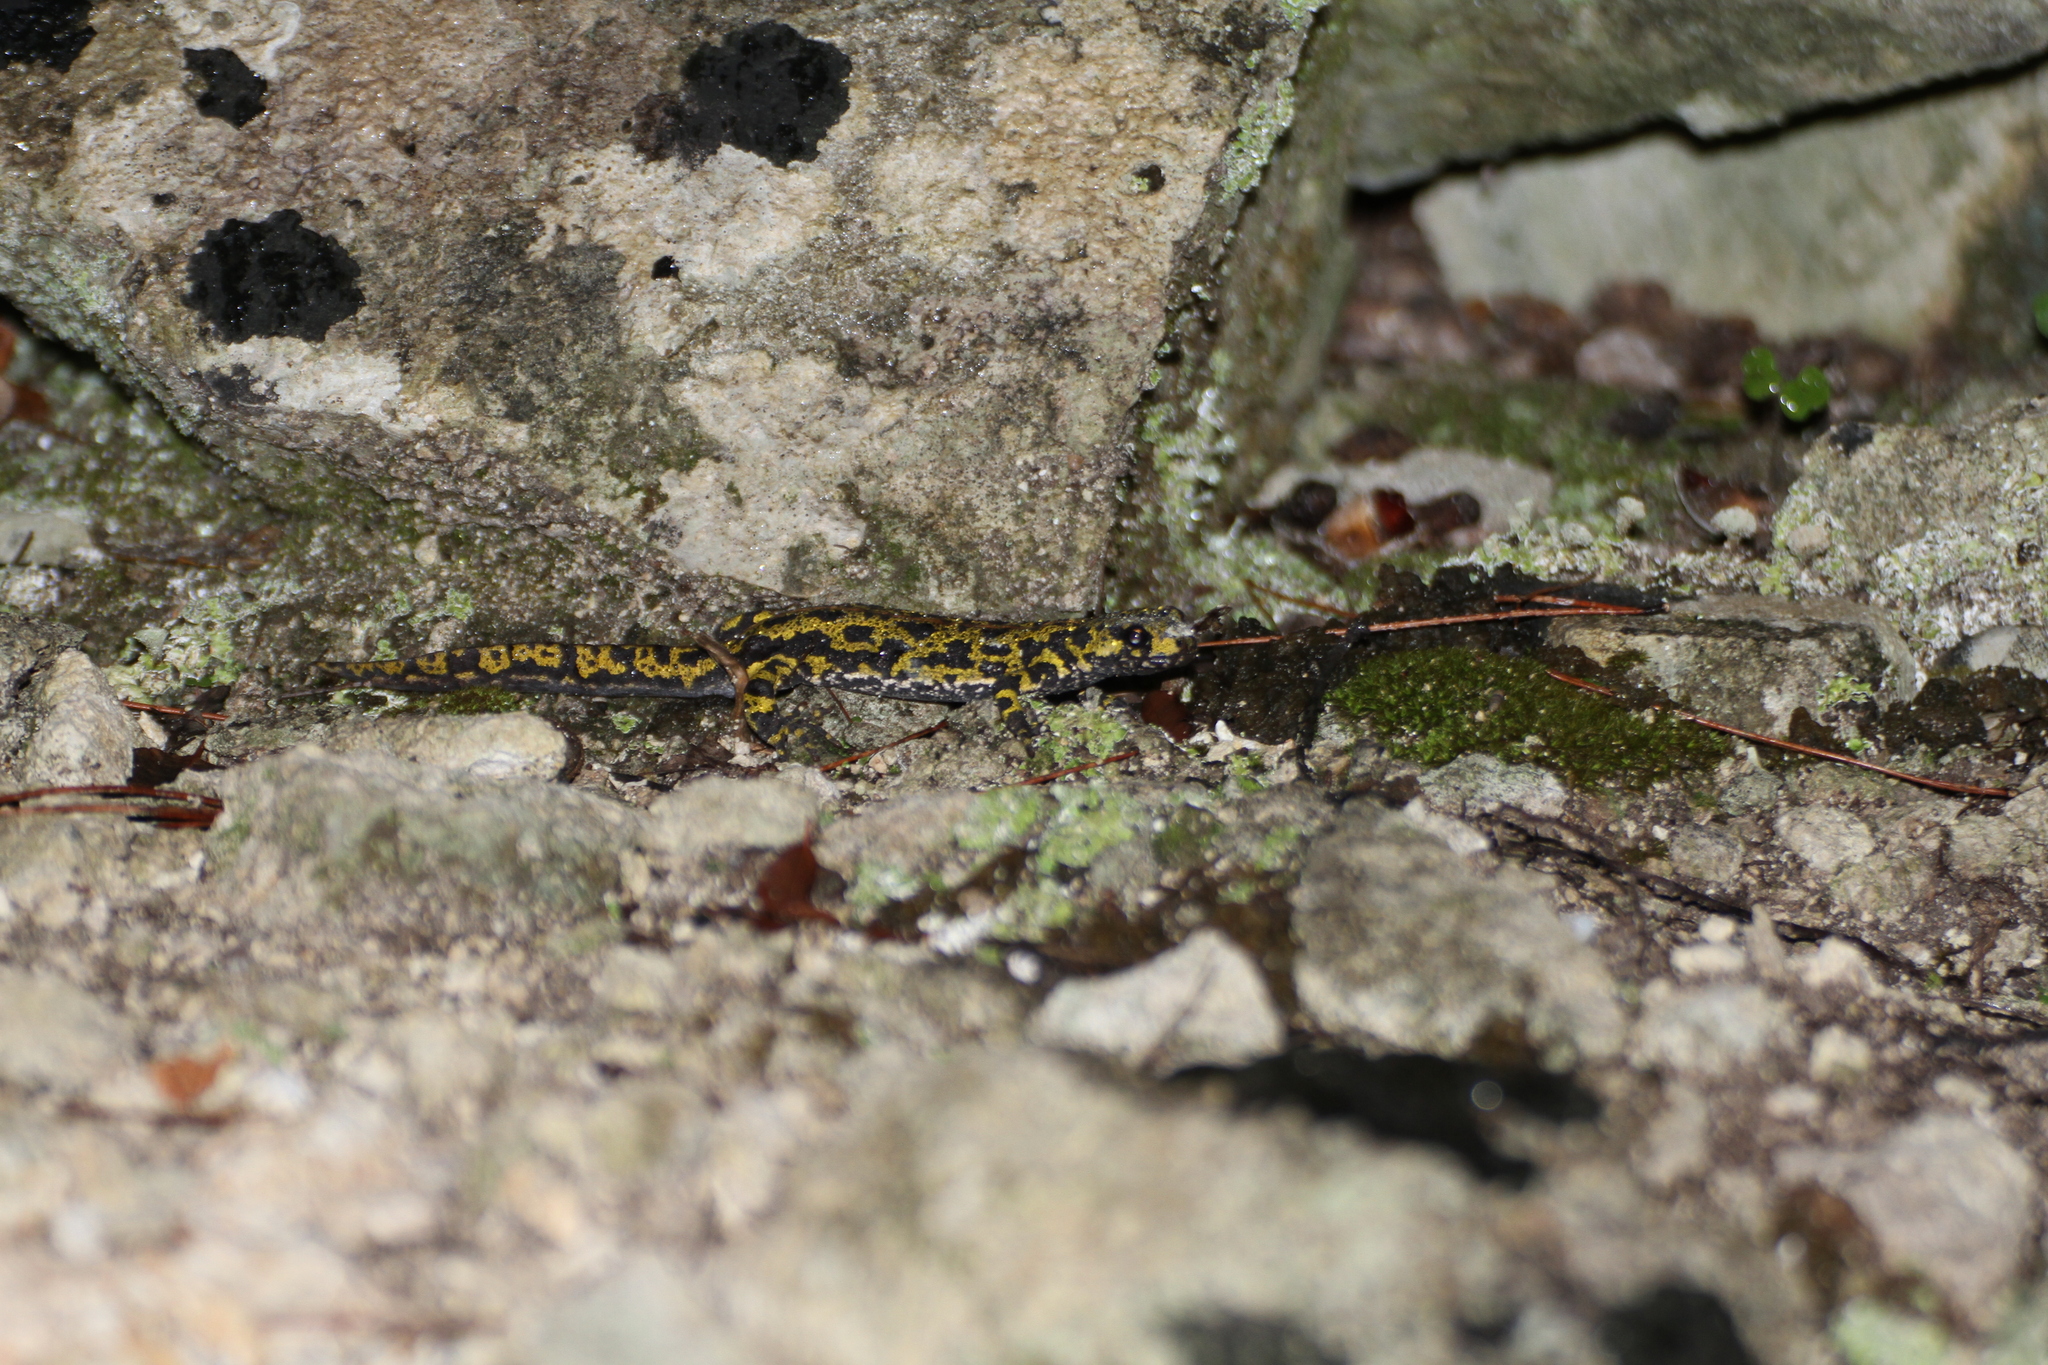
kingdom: Animalia
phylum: Chordata
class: Amphibia
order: Caudata
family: Salamandridae
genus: Triturus
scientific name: Triturus marmoratus
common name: Marbled newt
